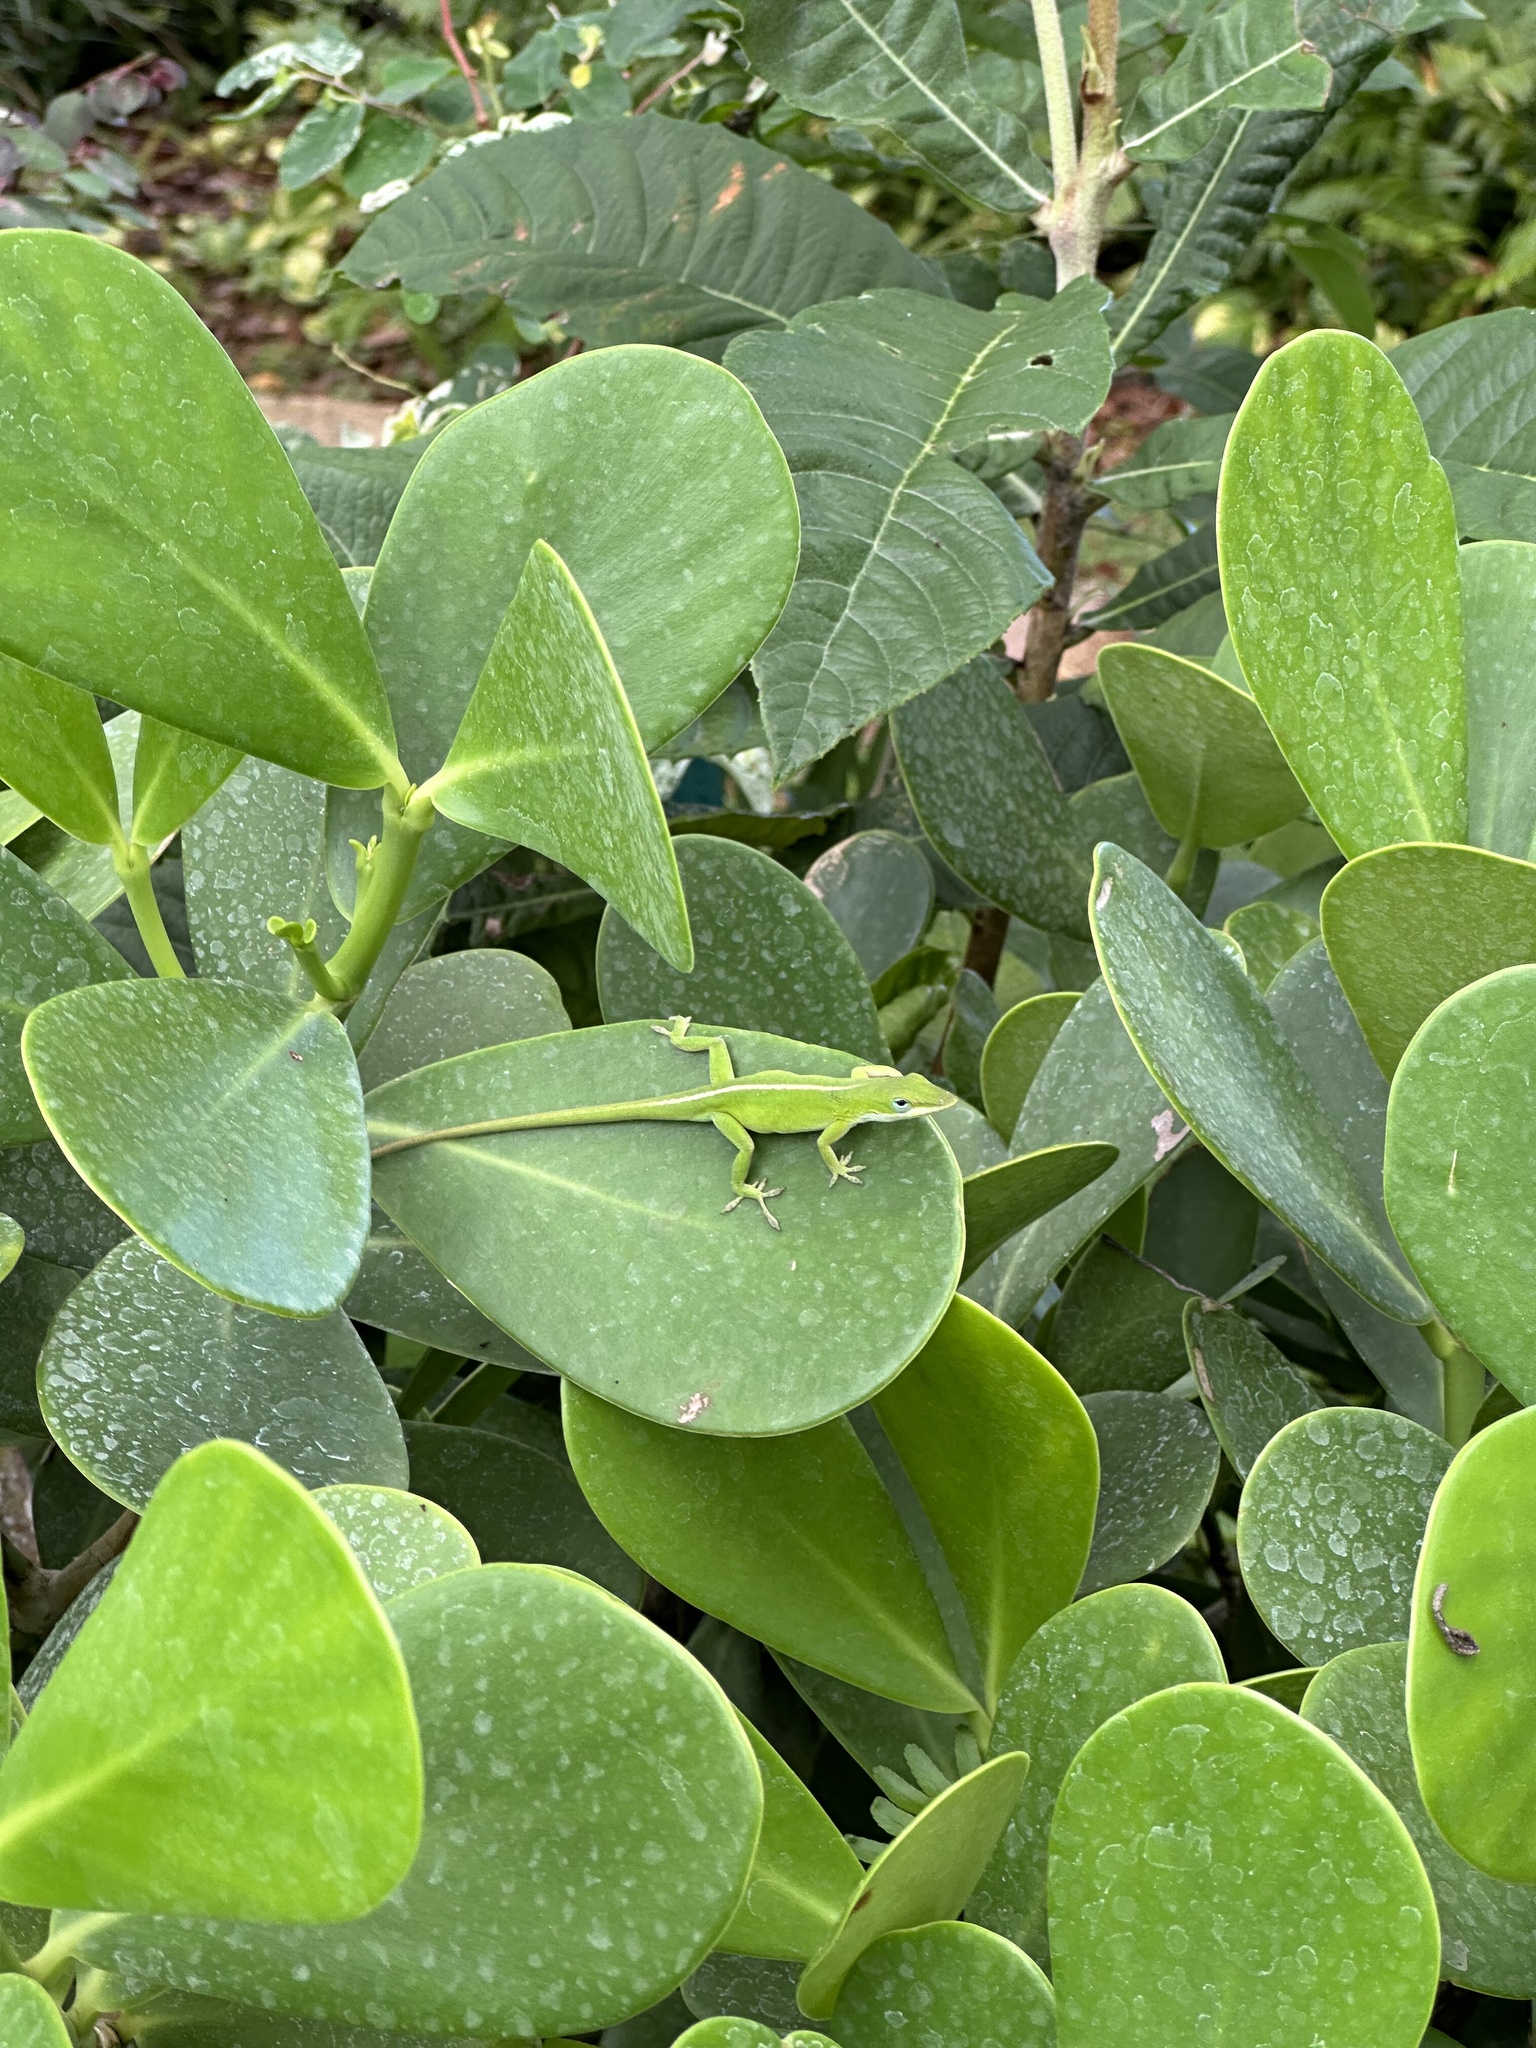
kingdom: Animalia
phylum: Chordata
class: Squamata
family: Dactyloidae
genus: Anolis
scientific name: Anolis carolinensis
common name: Green anole
